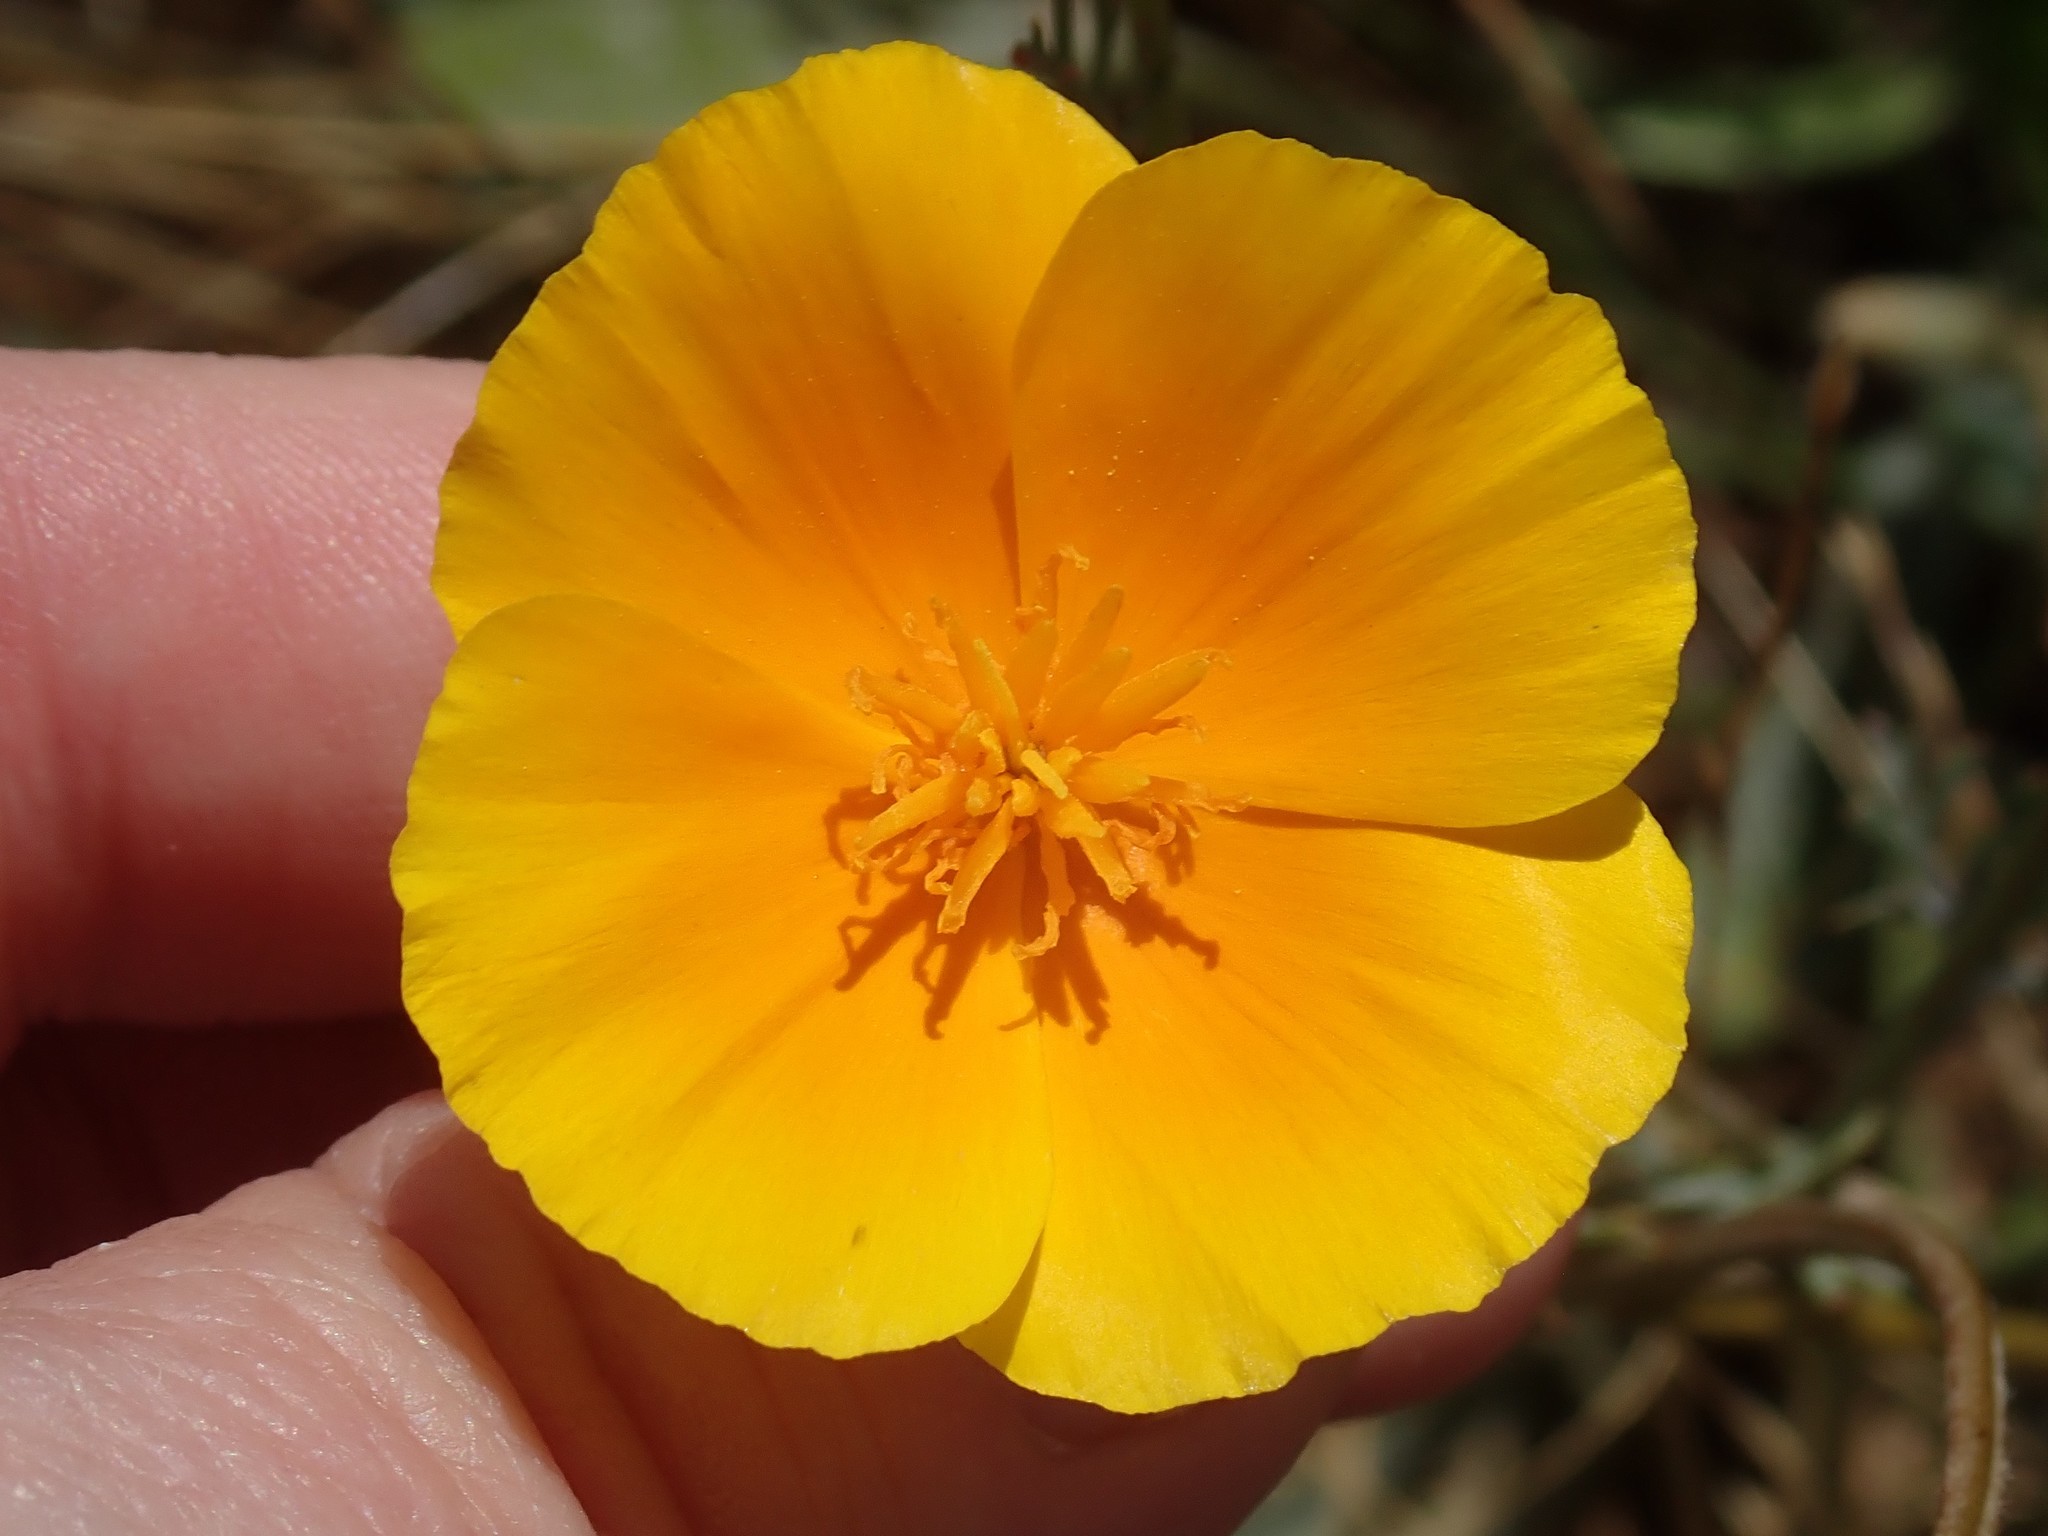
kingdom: Plantae
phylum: Tracheophyta
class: Magnoliopsida
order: Ranunculales
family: Papaveraceae
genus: Eschscholzia
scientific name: Eschscholzia
